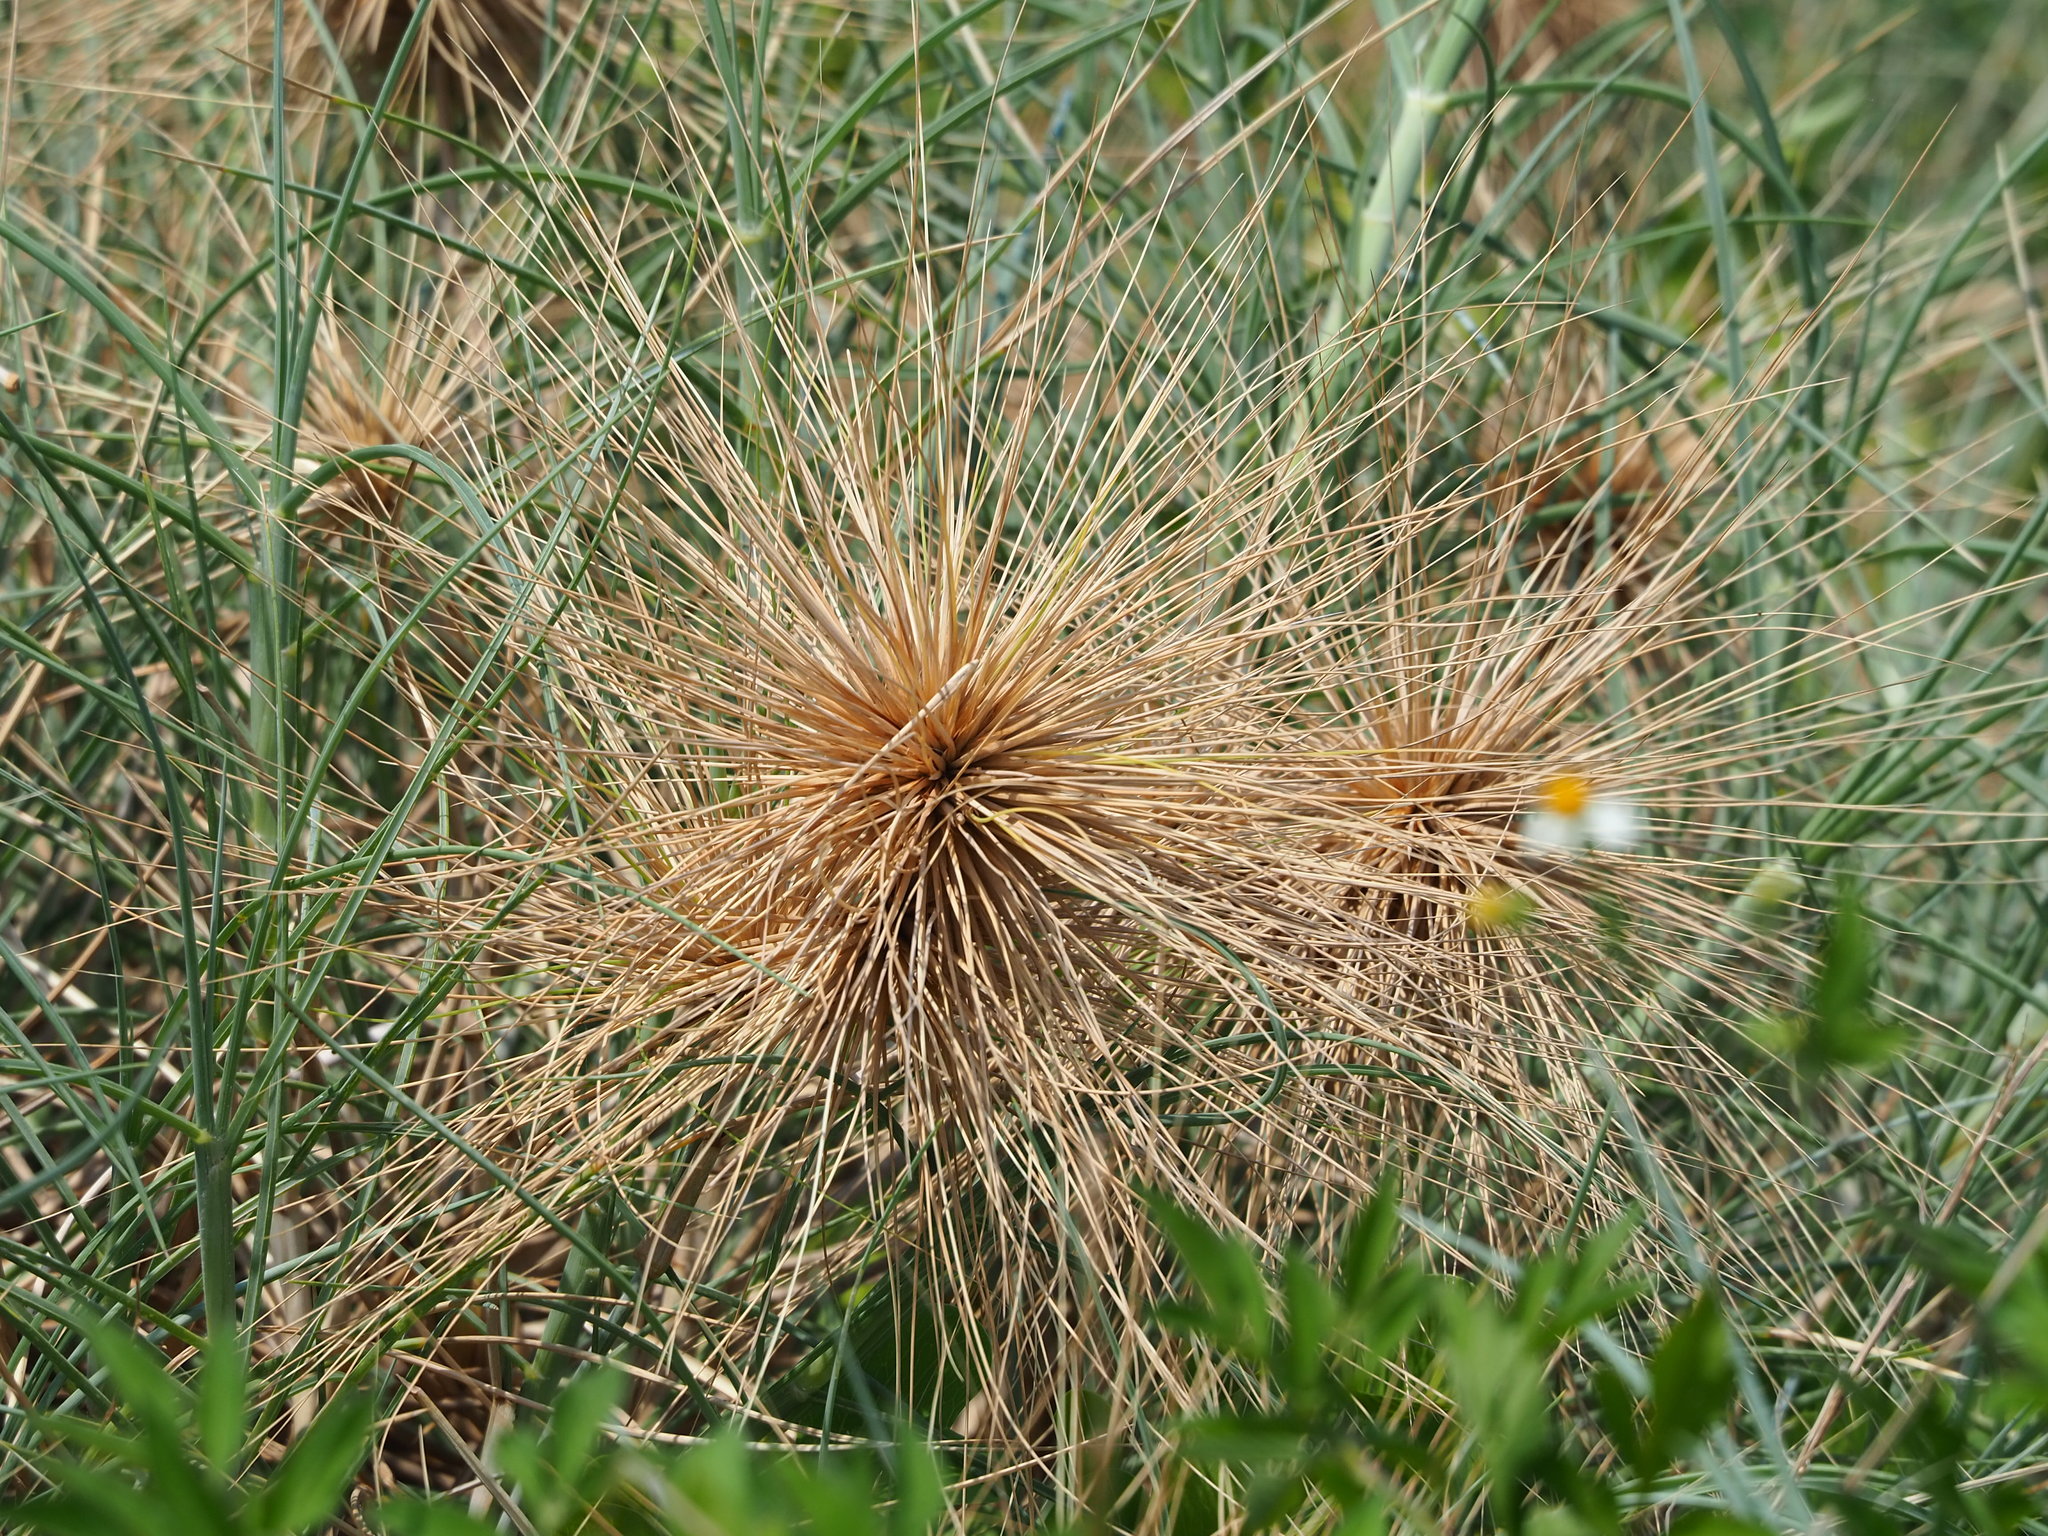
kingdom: Plantae
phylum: Tracheophyta
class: Liliopsida
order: Poales
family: Poaceae
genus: Spinifex
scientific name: Spinifex littoreus
